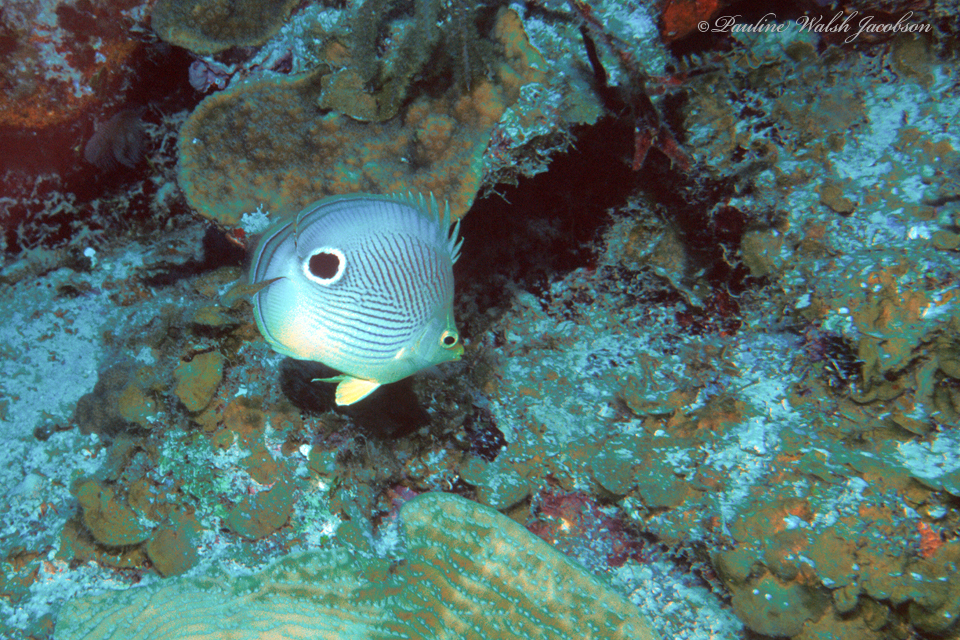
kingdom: Animalia
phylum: Chordata
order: Perciformes
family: Chaetodontidae
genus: Chaetodon
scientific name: Chaetodon capistratus
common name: Kete
